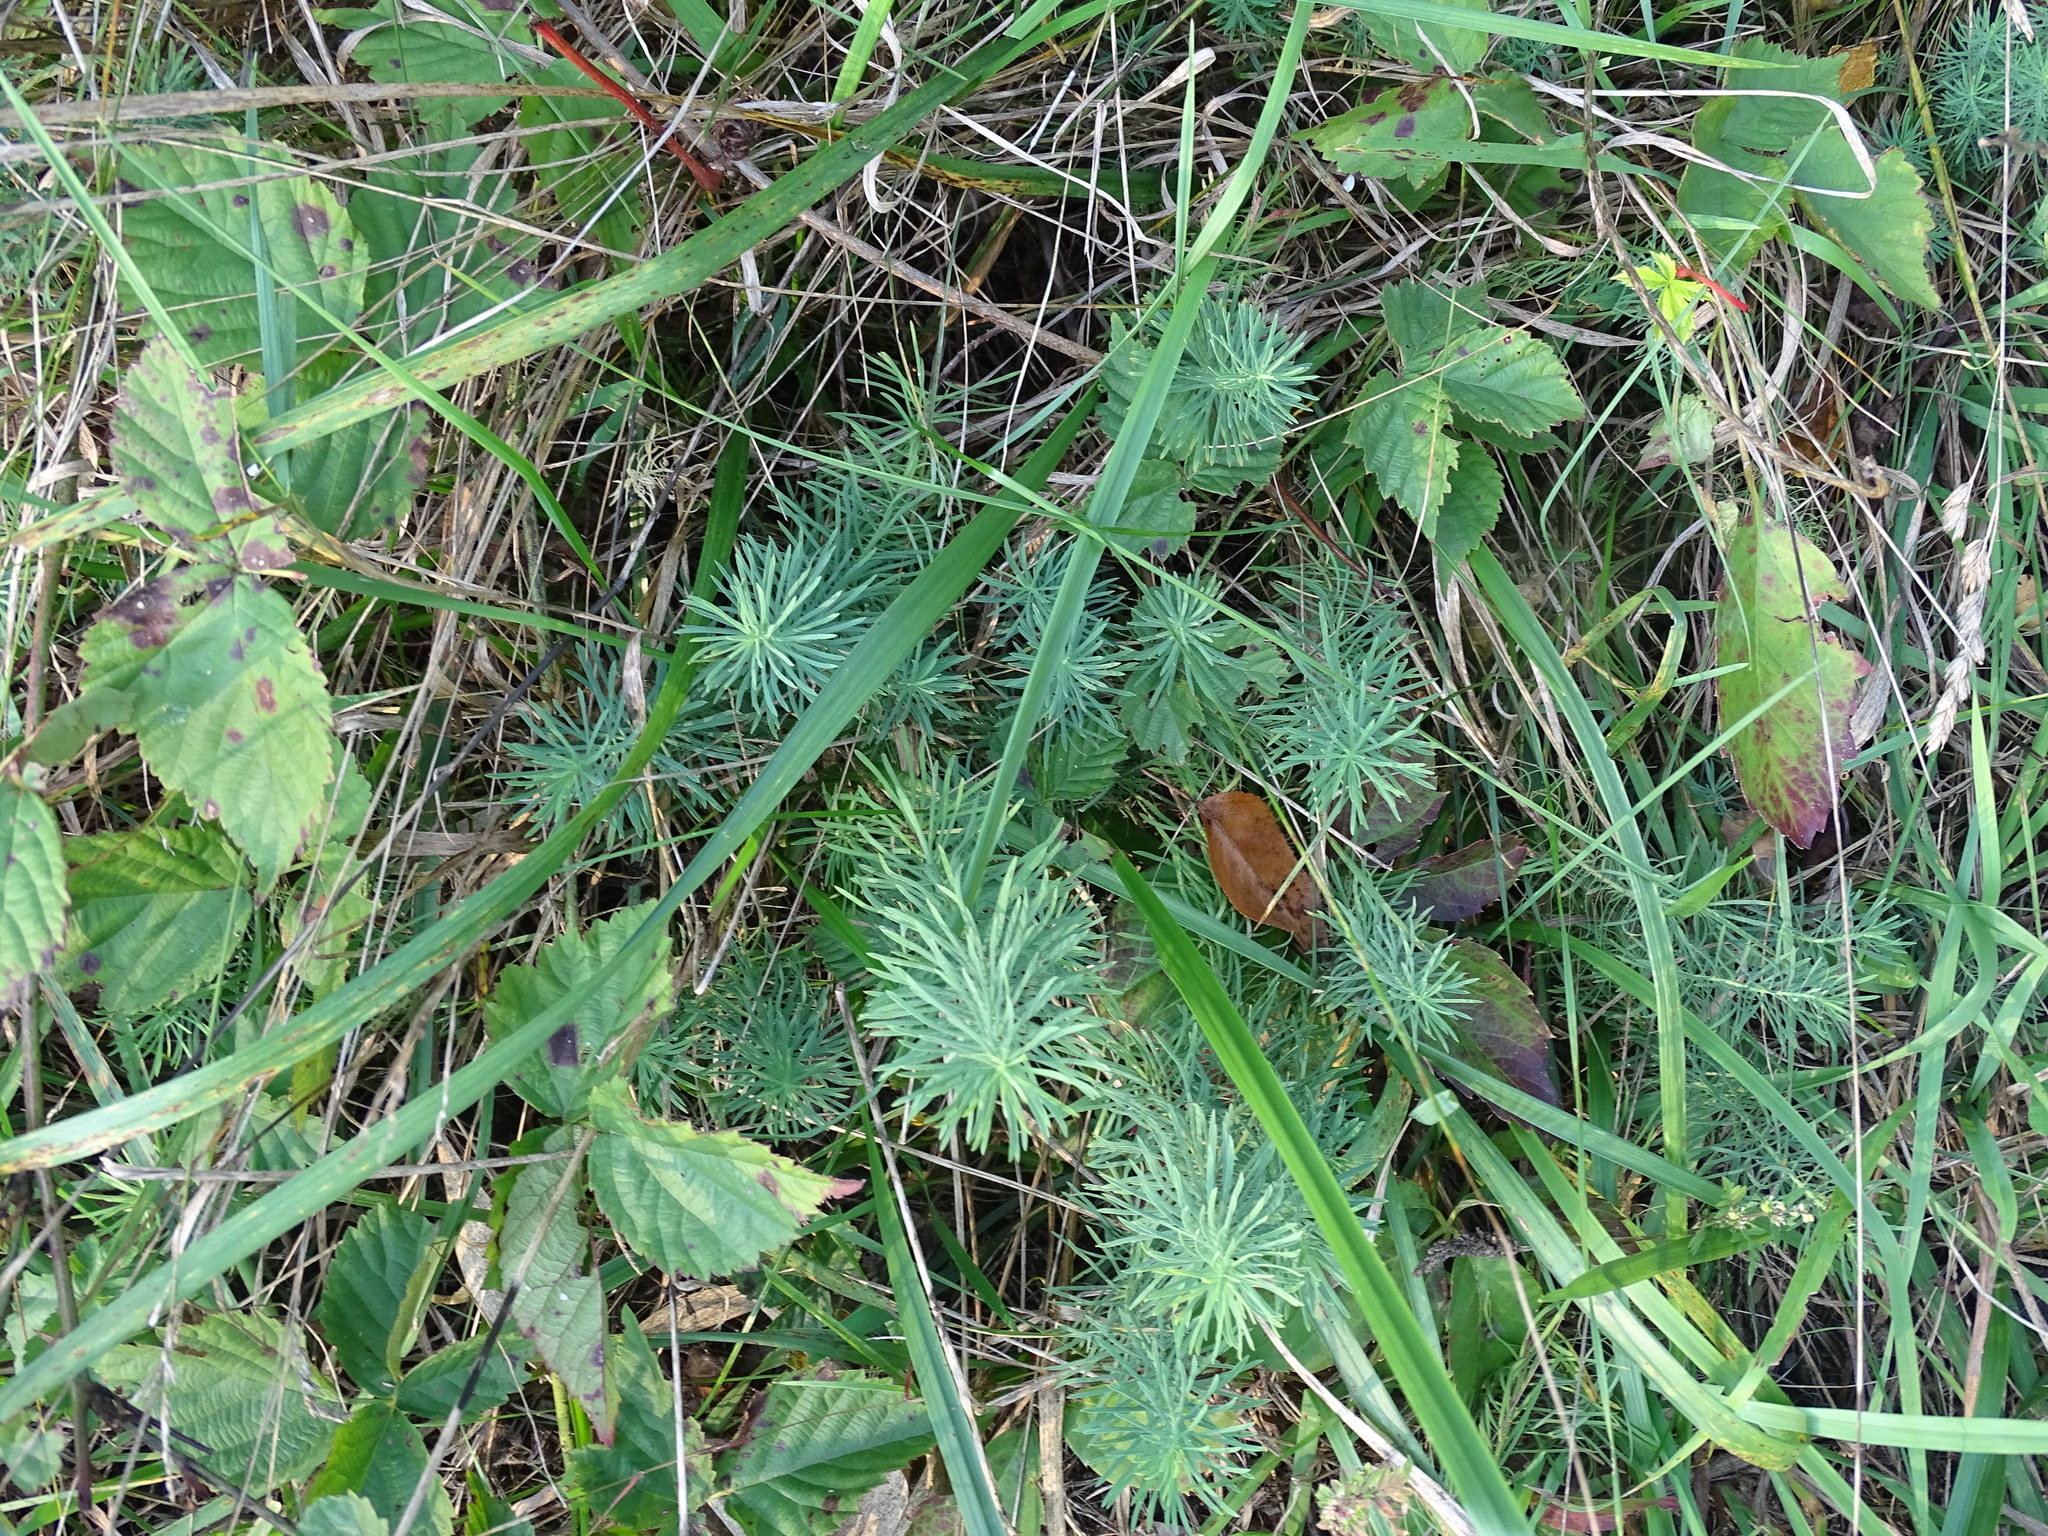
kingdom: Plantae
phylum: Tracheophyta
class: Magnoliopsida
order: Malpighiales
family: Euphorbiaceae
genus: Euphorbia
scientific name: Euphorbia cyparissias
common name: Cypress spurge
